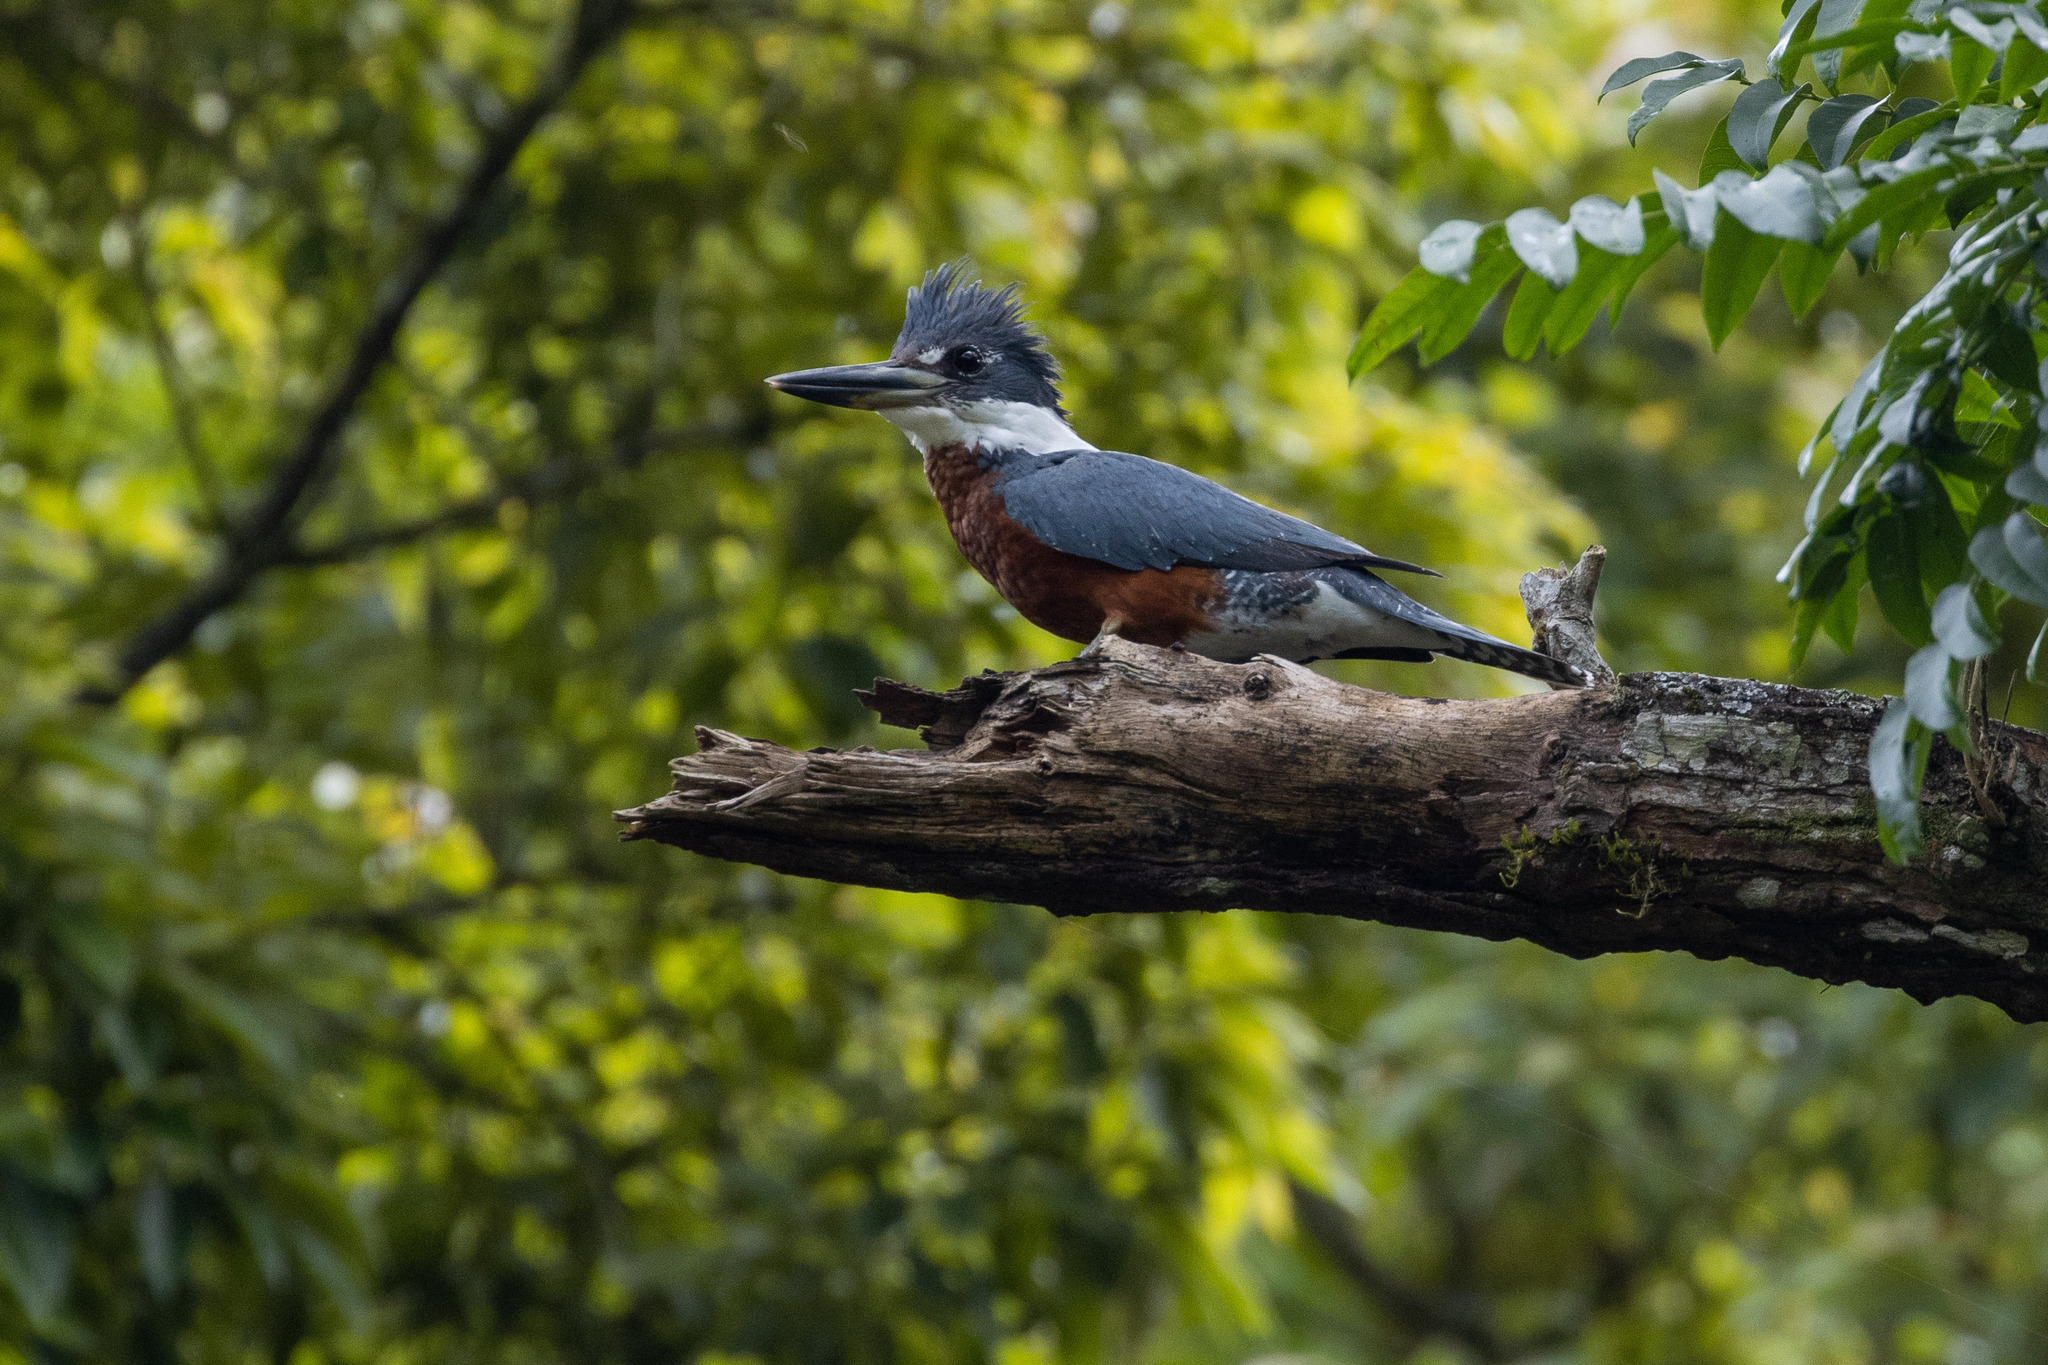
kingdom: Animalia
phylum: Chordata
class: Aves
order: Coraciiformes
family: Alcedinidae
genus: Megaceryle
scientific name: Megaceryle torquata
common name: Ringed kingfisher
